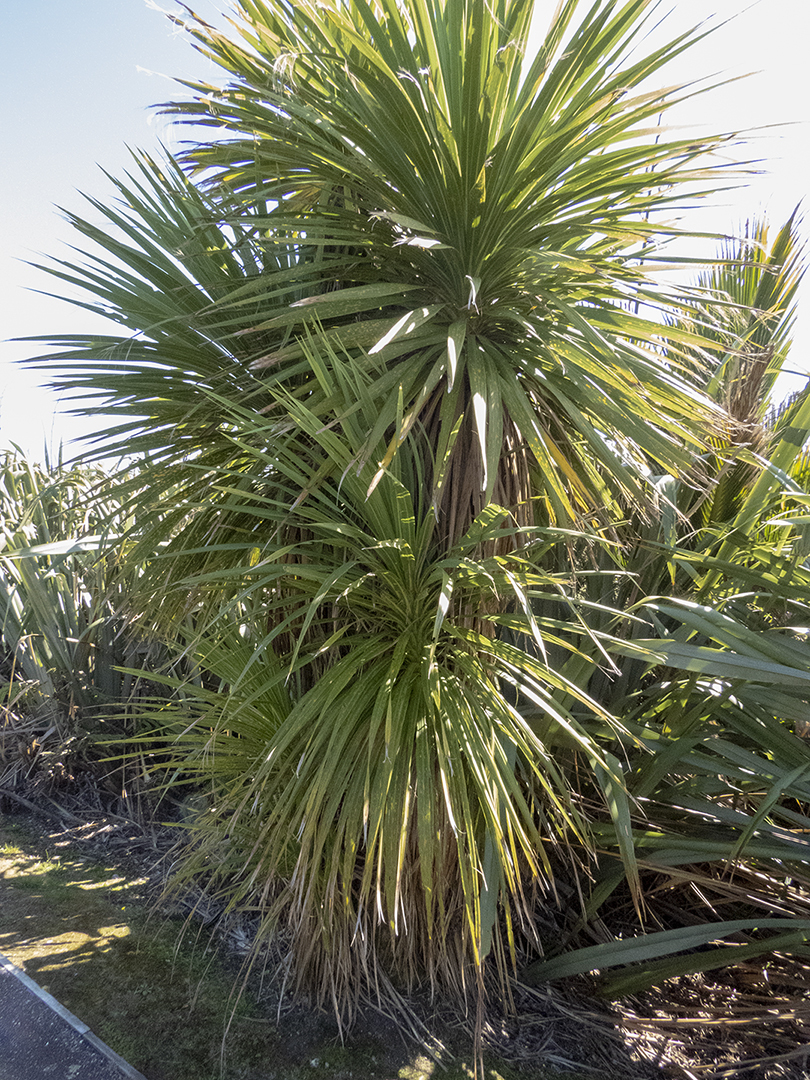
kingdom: Plantae
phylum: Tracheophyta
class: Liliopsida
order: Asparagales
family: Asparagaceae
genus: Cordyline
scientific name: Cordyline australis
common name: Cabbage-palm
